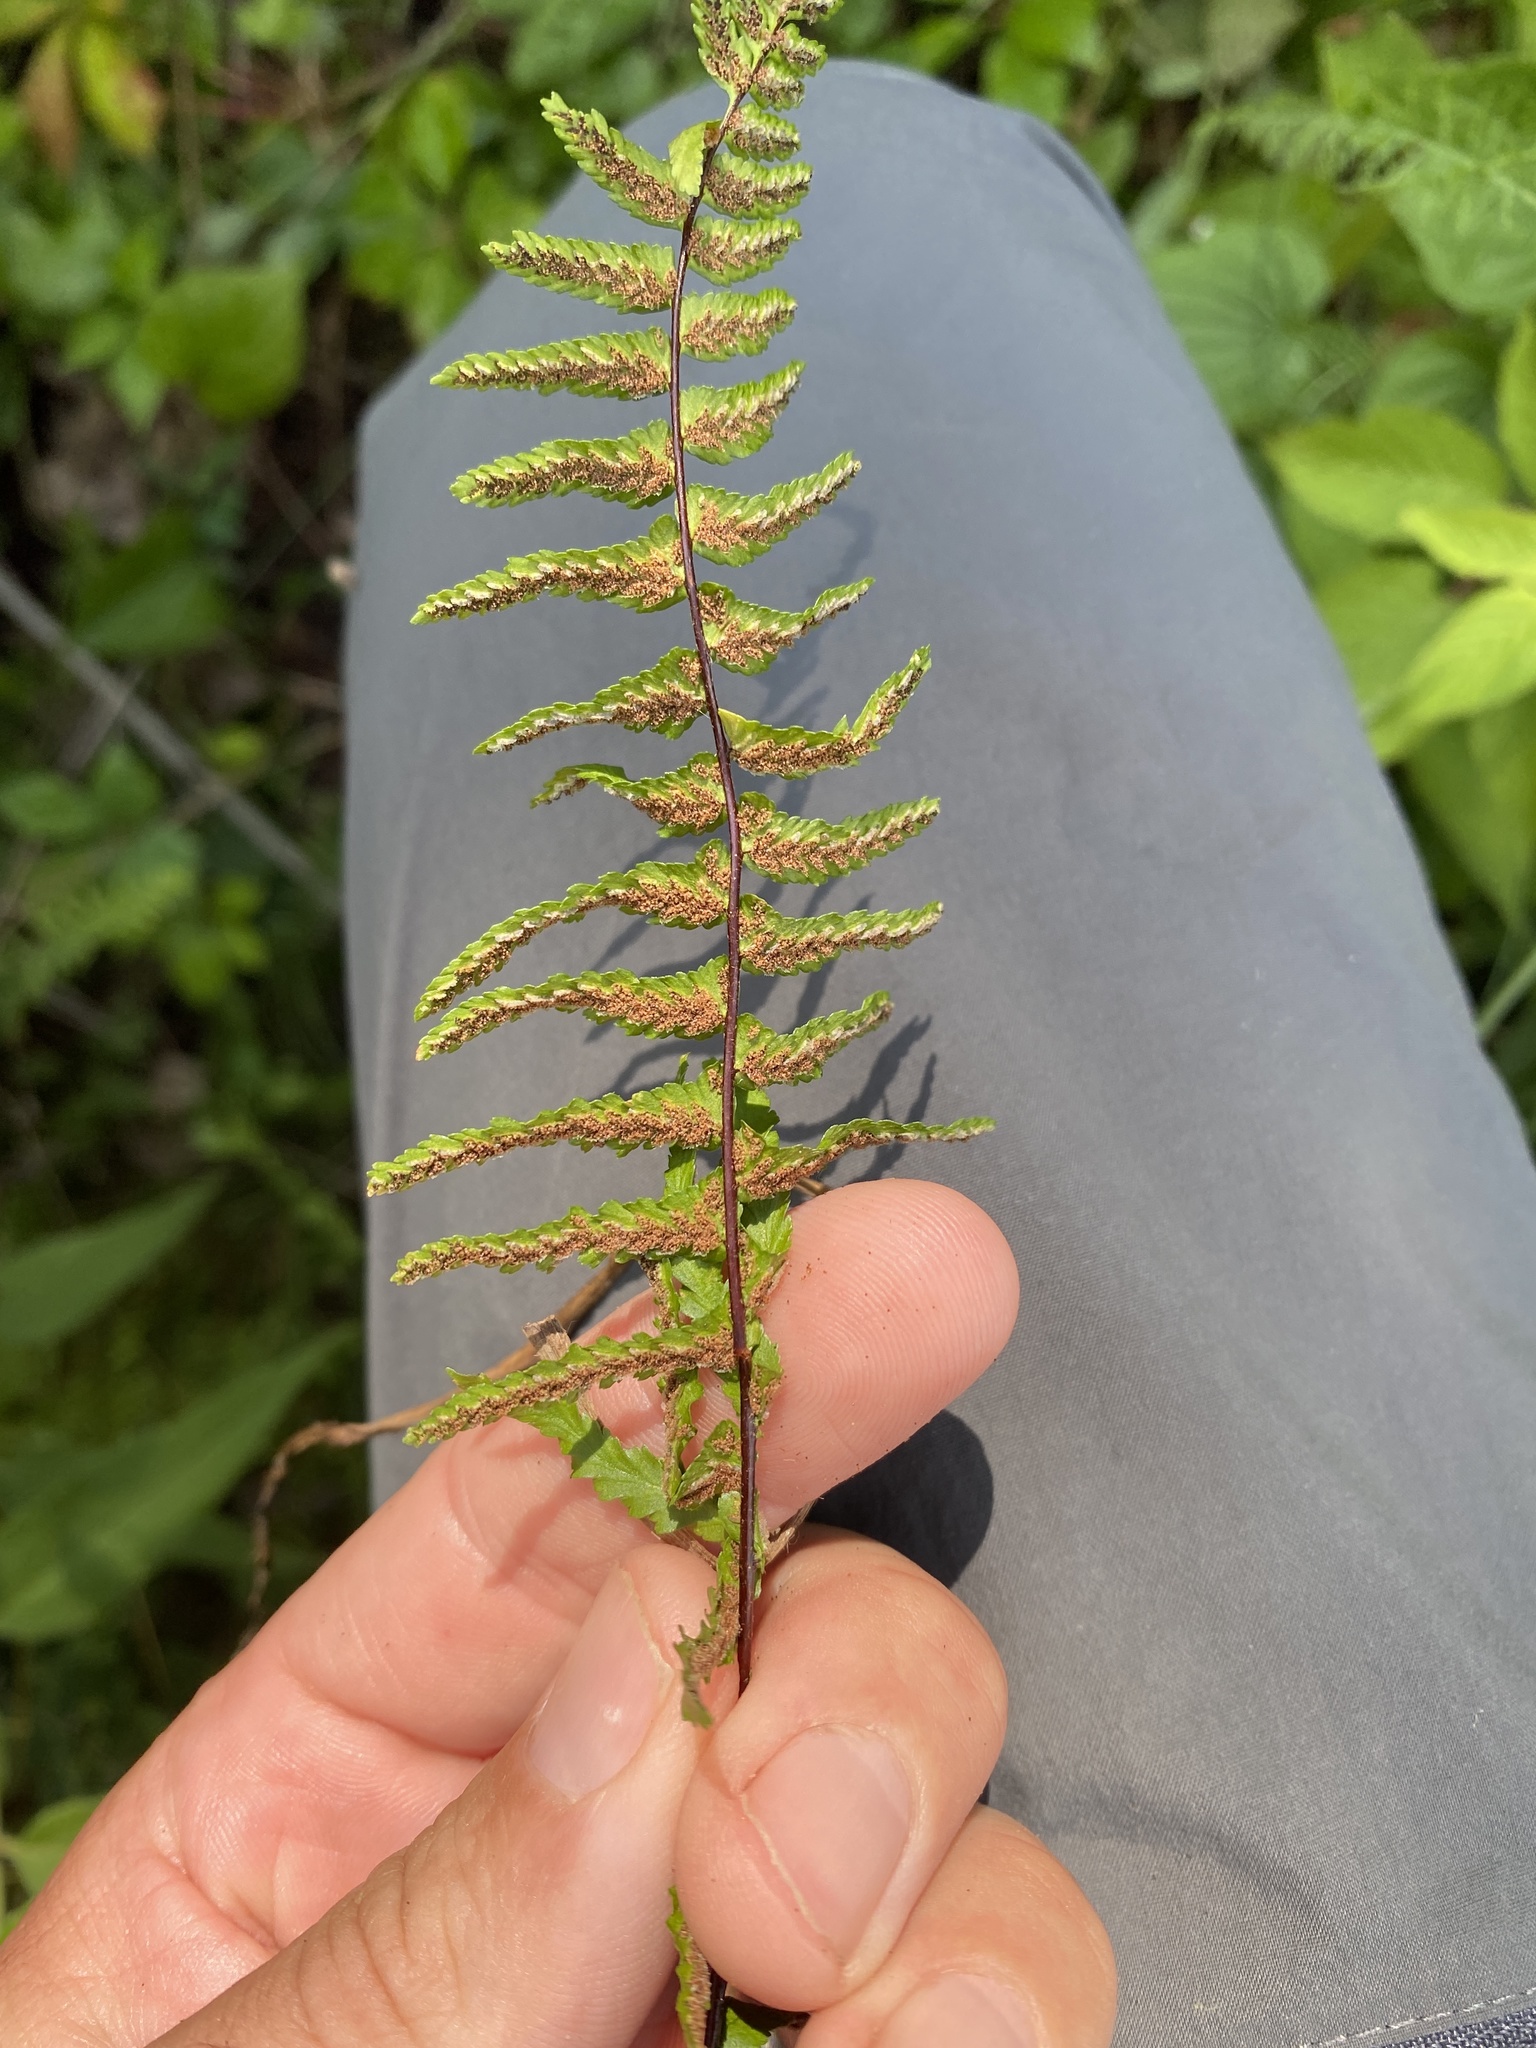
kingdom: Plantae
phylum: Tracheophyta
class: Polypodiopsida
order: Polypodiales
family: Aspleniaceae
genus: Asplenium
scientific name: Asplenium platyneuron
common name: Ebony spleenwort
